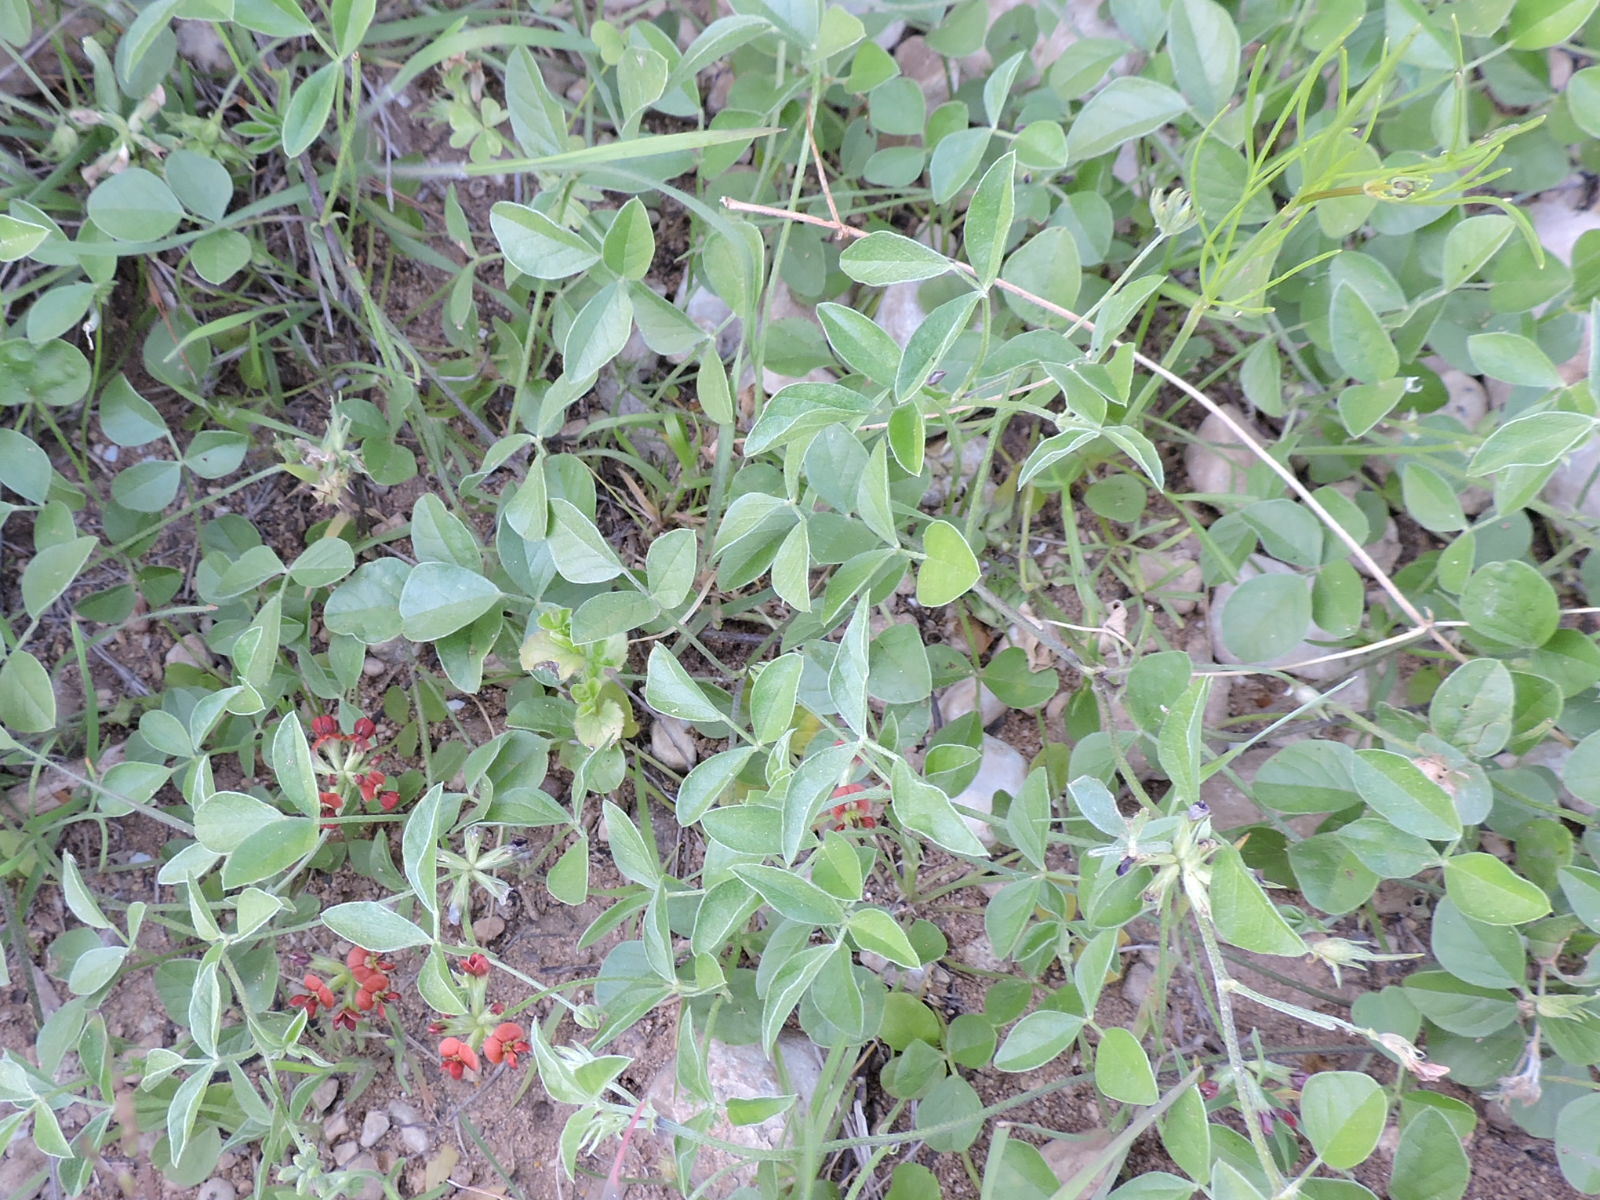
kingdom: Plantae
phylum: Tracheophyta
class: Magnoliopsida
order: Fabales
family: Fabaceae
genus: Pediomelum
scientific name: Pediomelum rhombifolium
